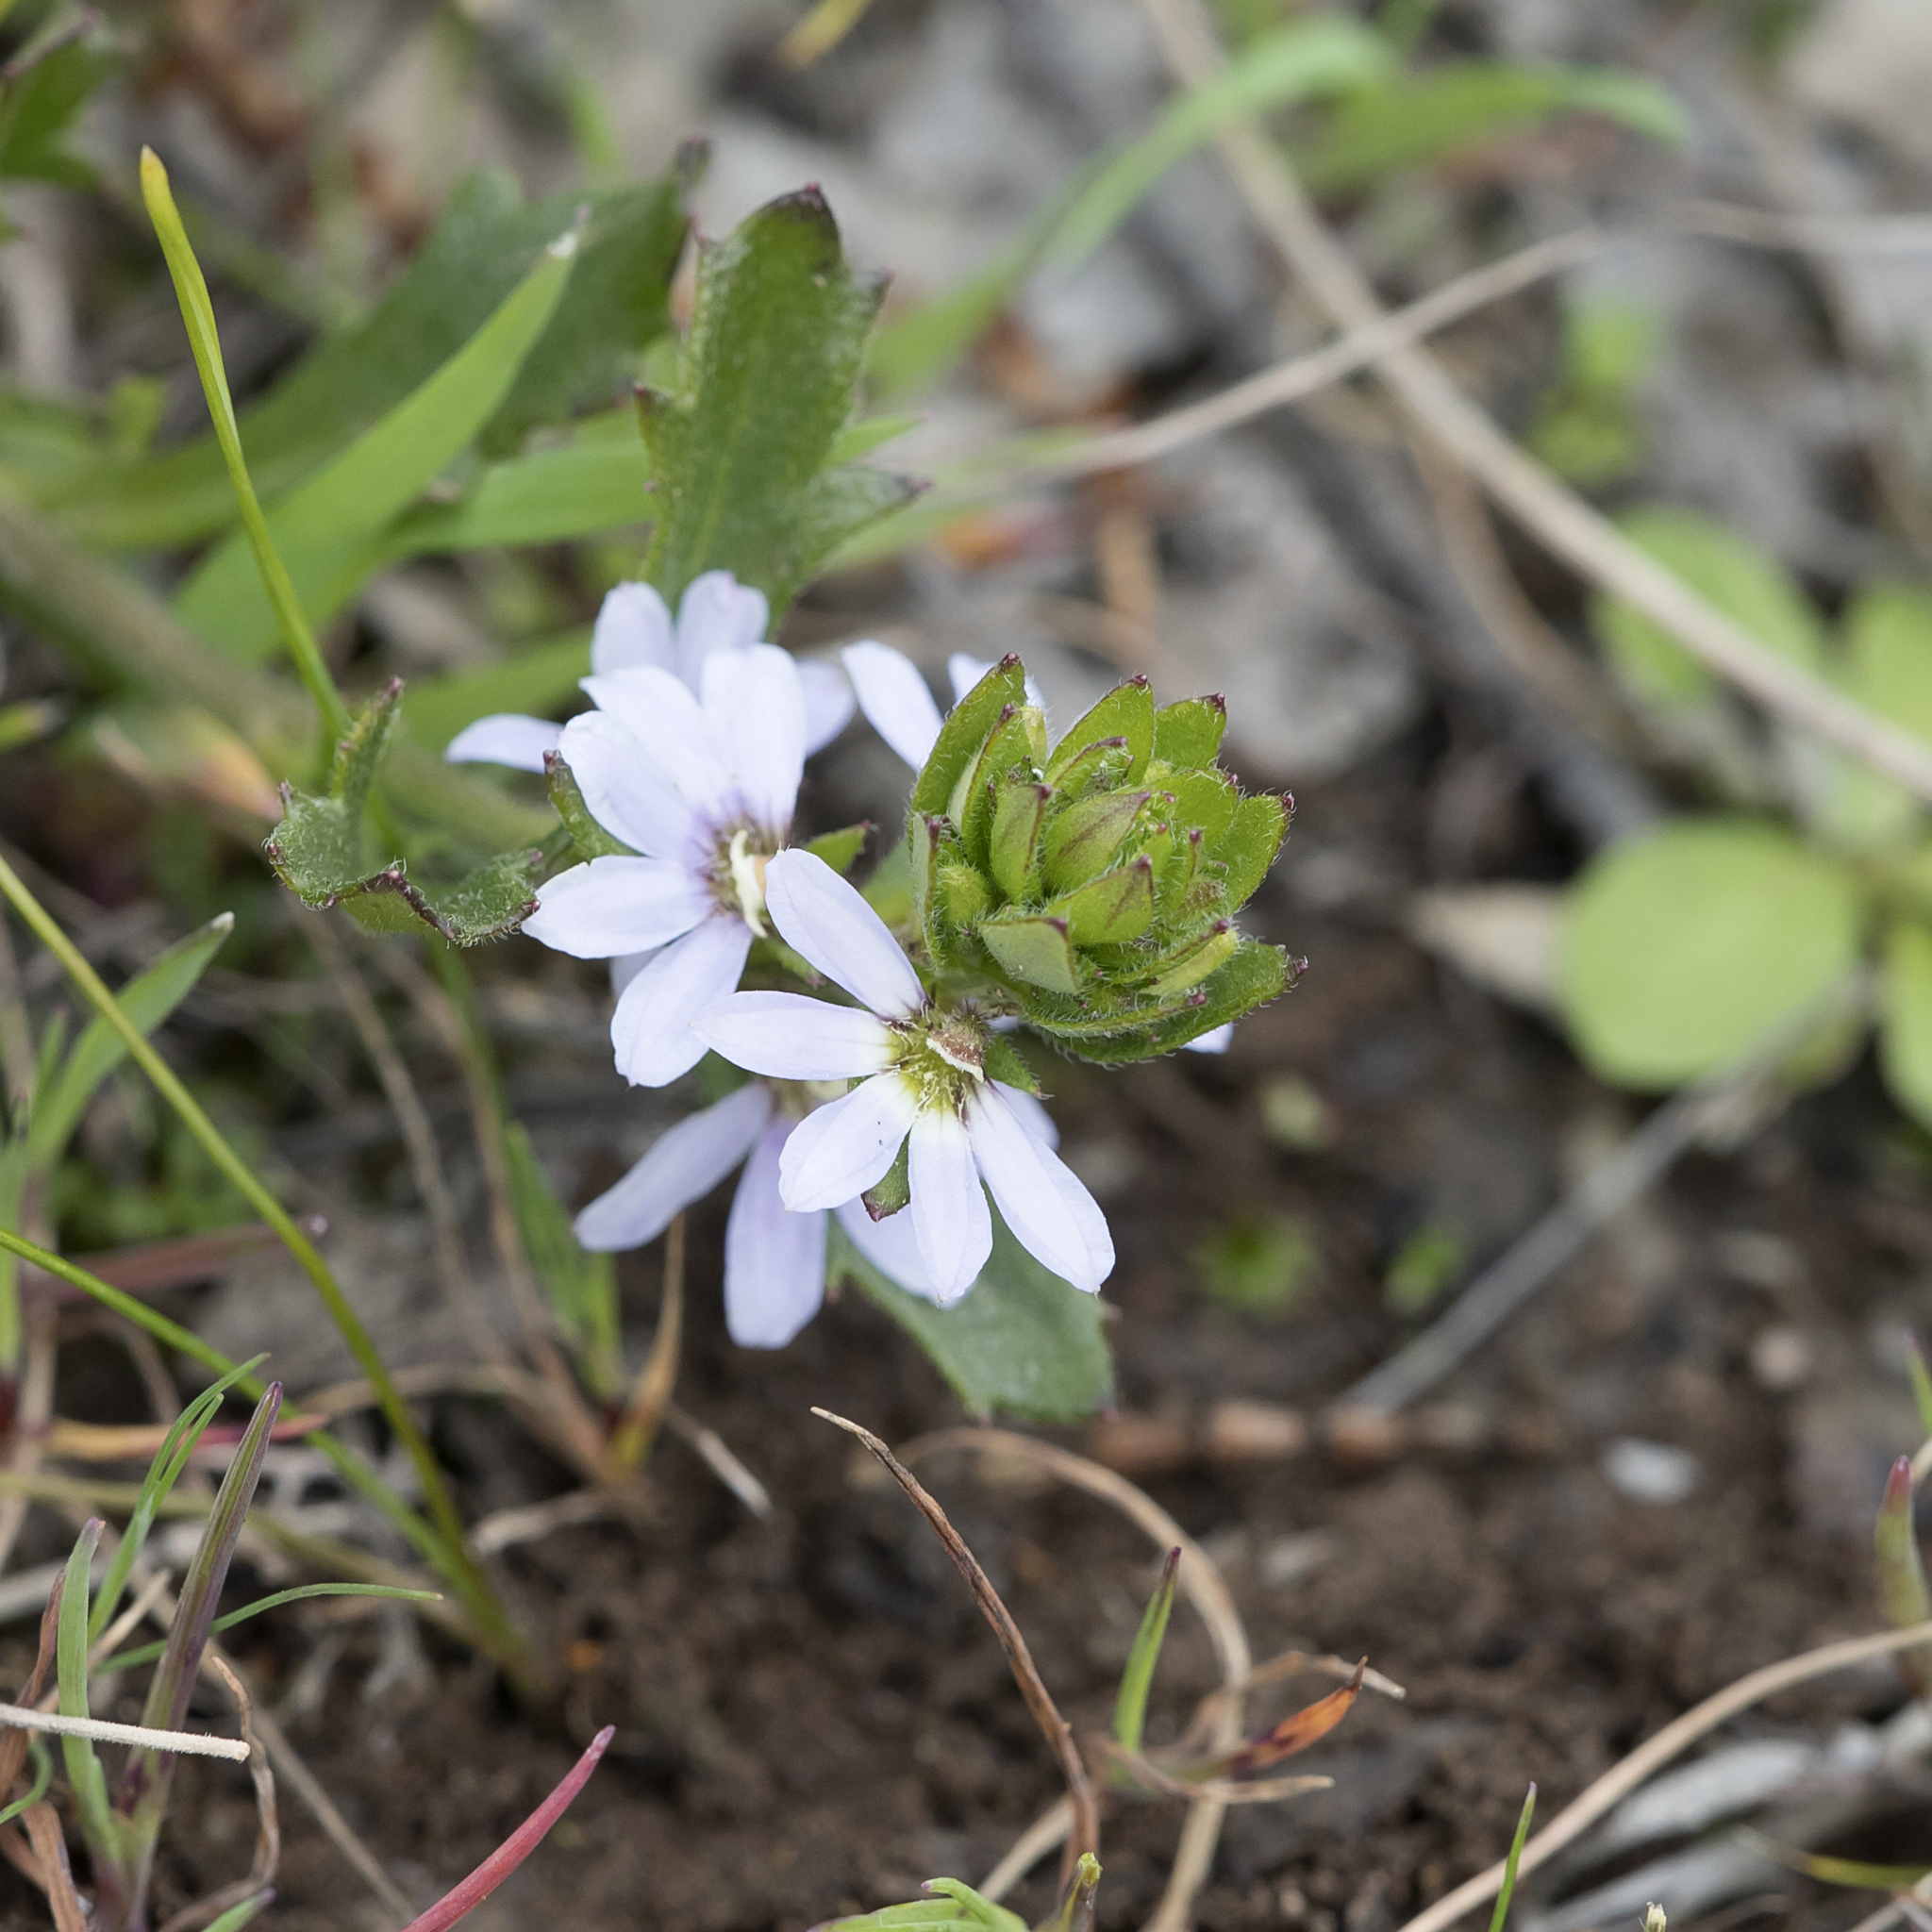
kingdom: Plantae
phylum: Tracheophyta
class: Magnoliopsida
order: Asterales
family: Goodeniaceae
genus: Scaevola
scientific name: Scaevola albida
